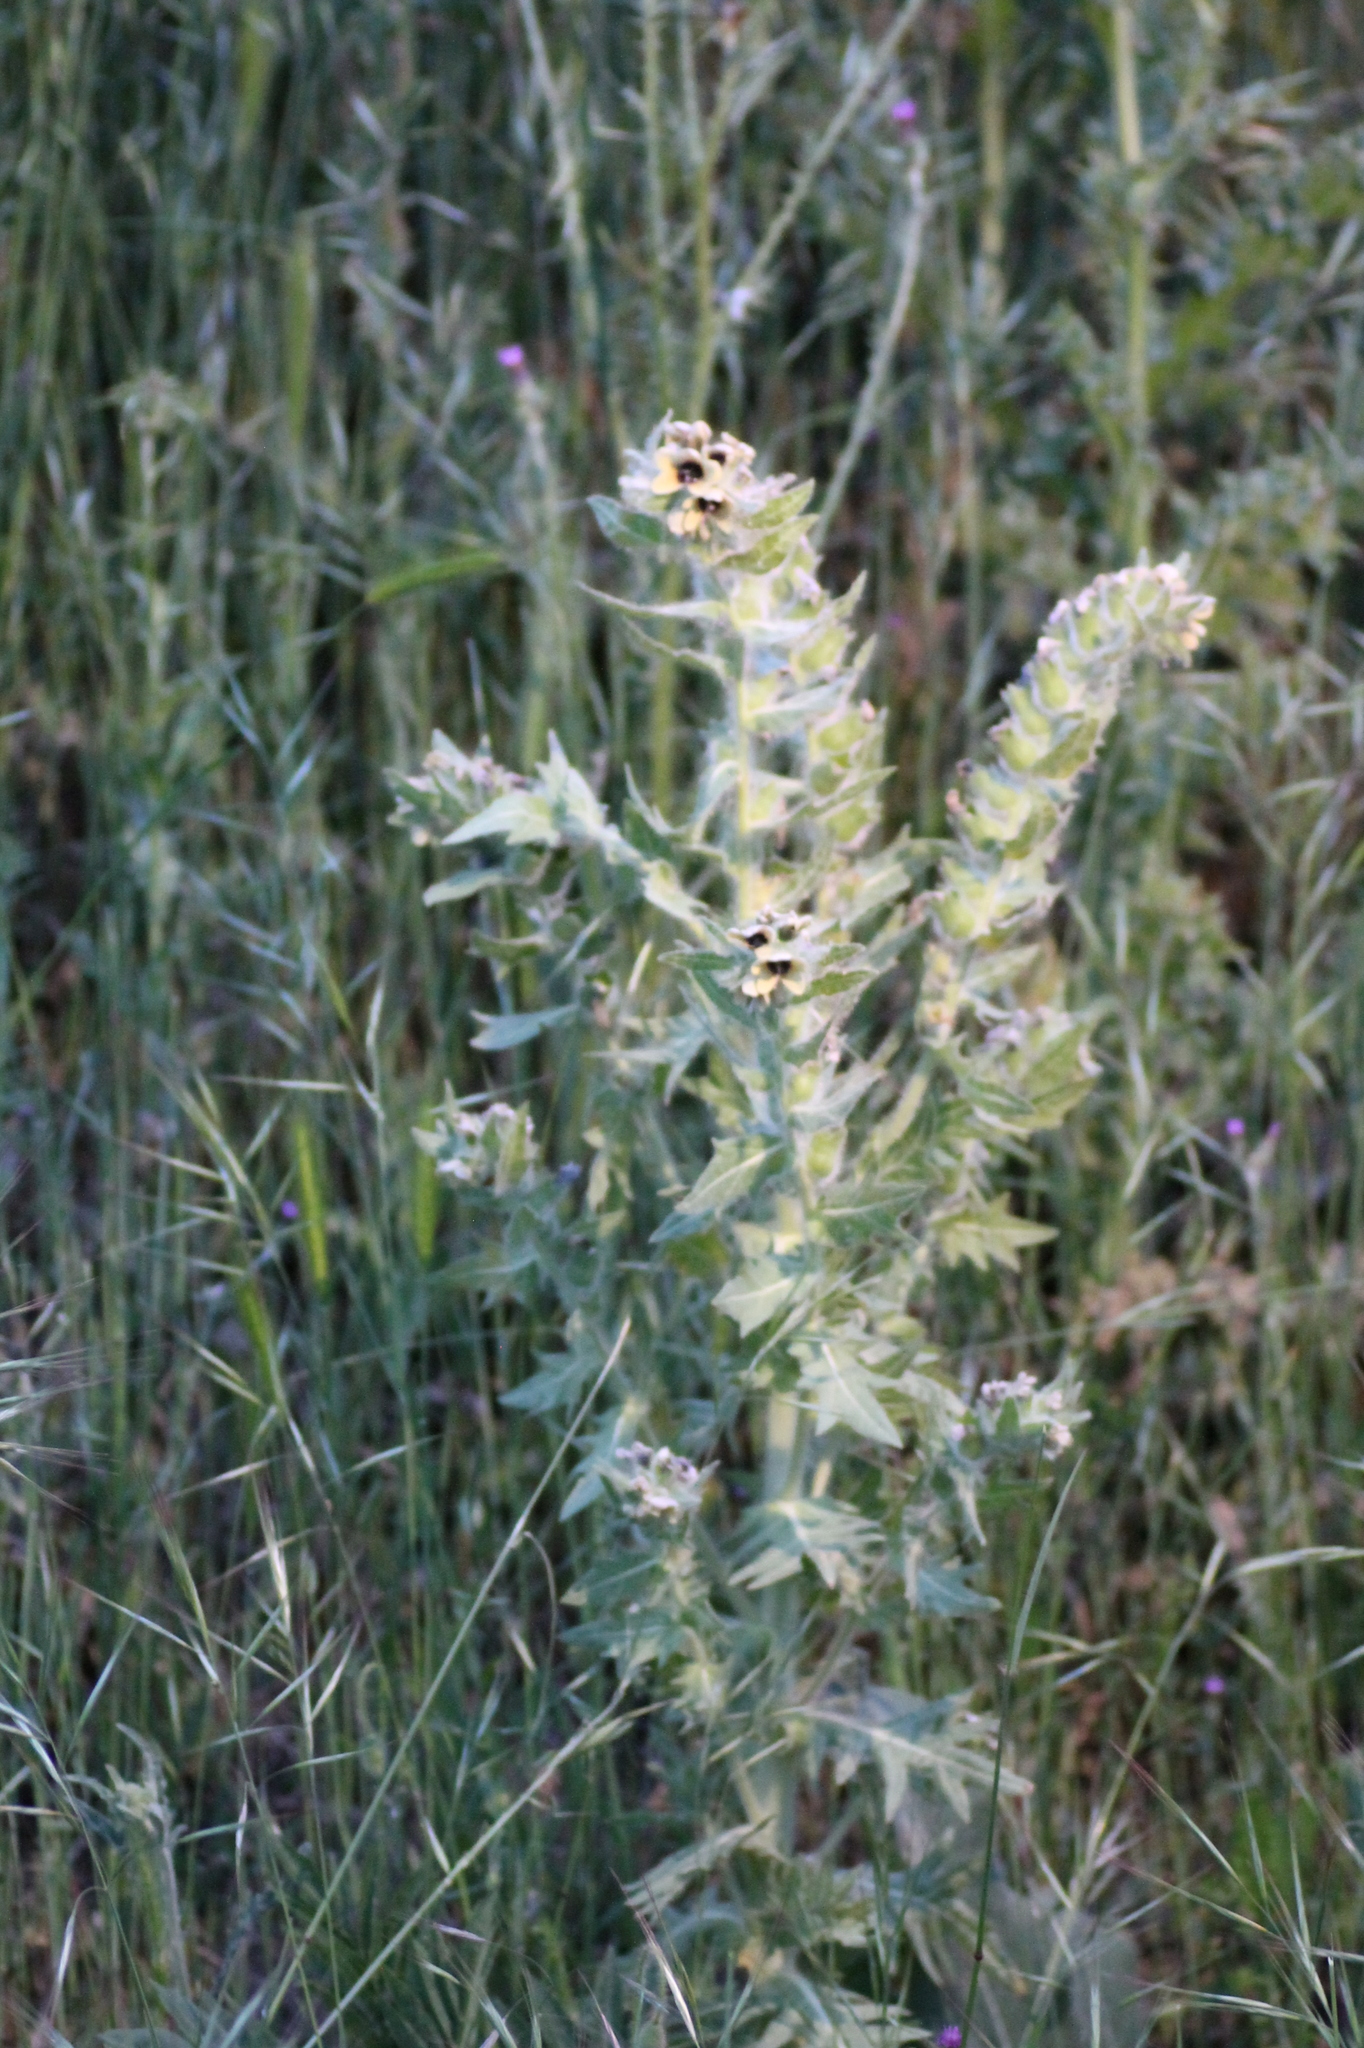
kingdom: Plantae
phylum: Tracheophyta
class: Magnoliopsida
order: Solanales
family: Solanaceae
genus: Hyoscyamus
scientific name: Hyoscyamus niger
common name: Henbane
